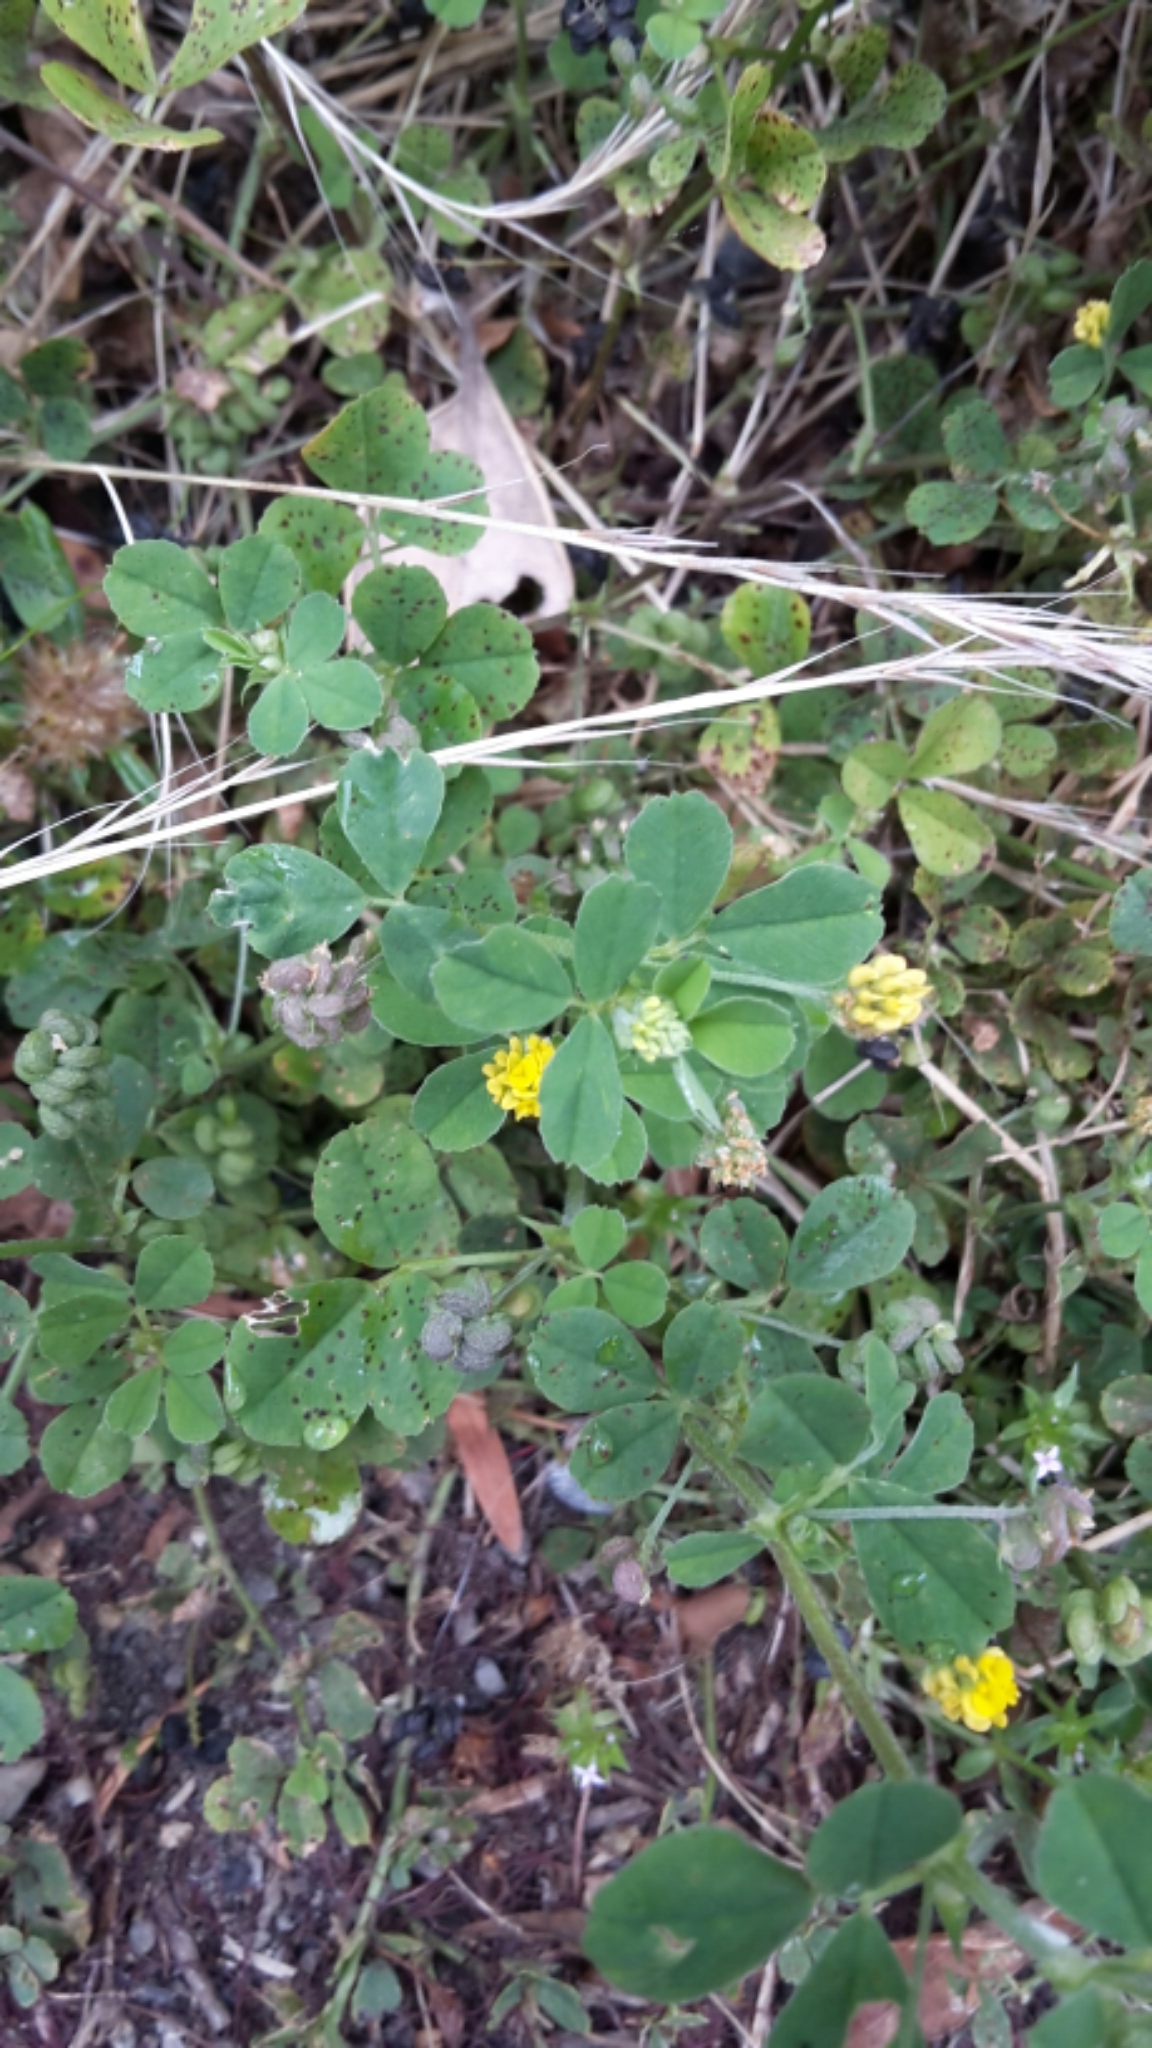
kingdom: Plantae
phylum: Tracheophyta
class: Magnoliopsida
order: Fabales
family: Fabaceae
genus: Medicago
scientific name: Medicago lupulina
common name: Black medick
